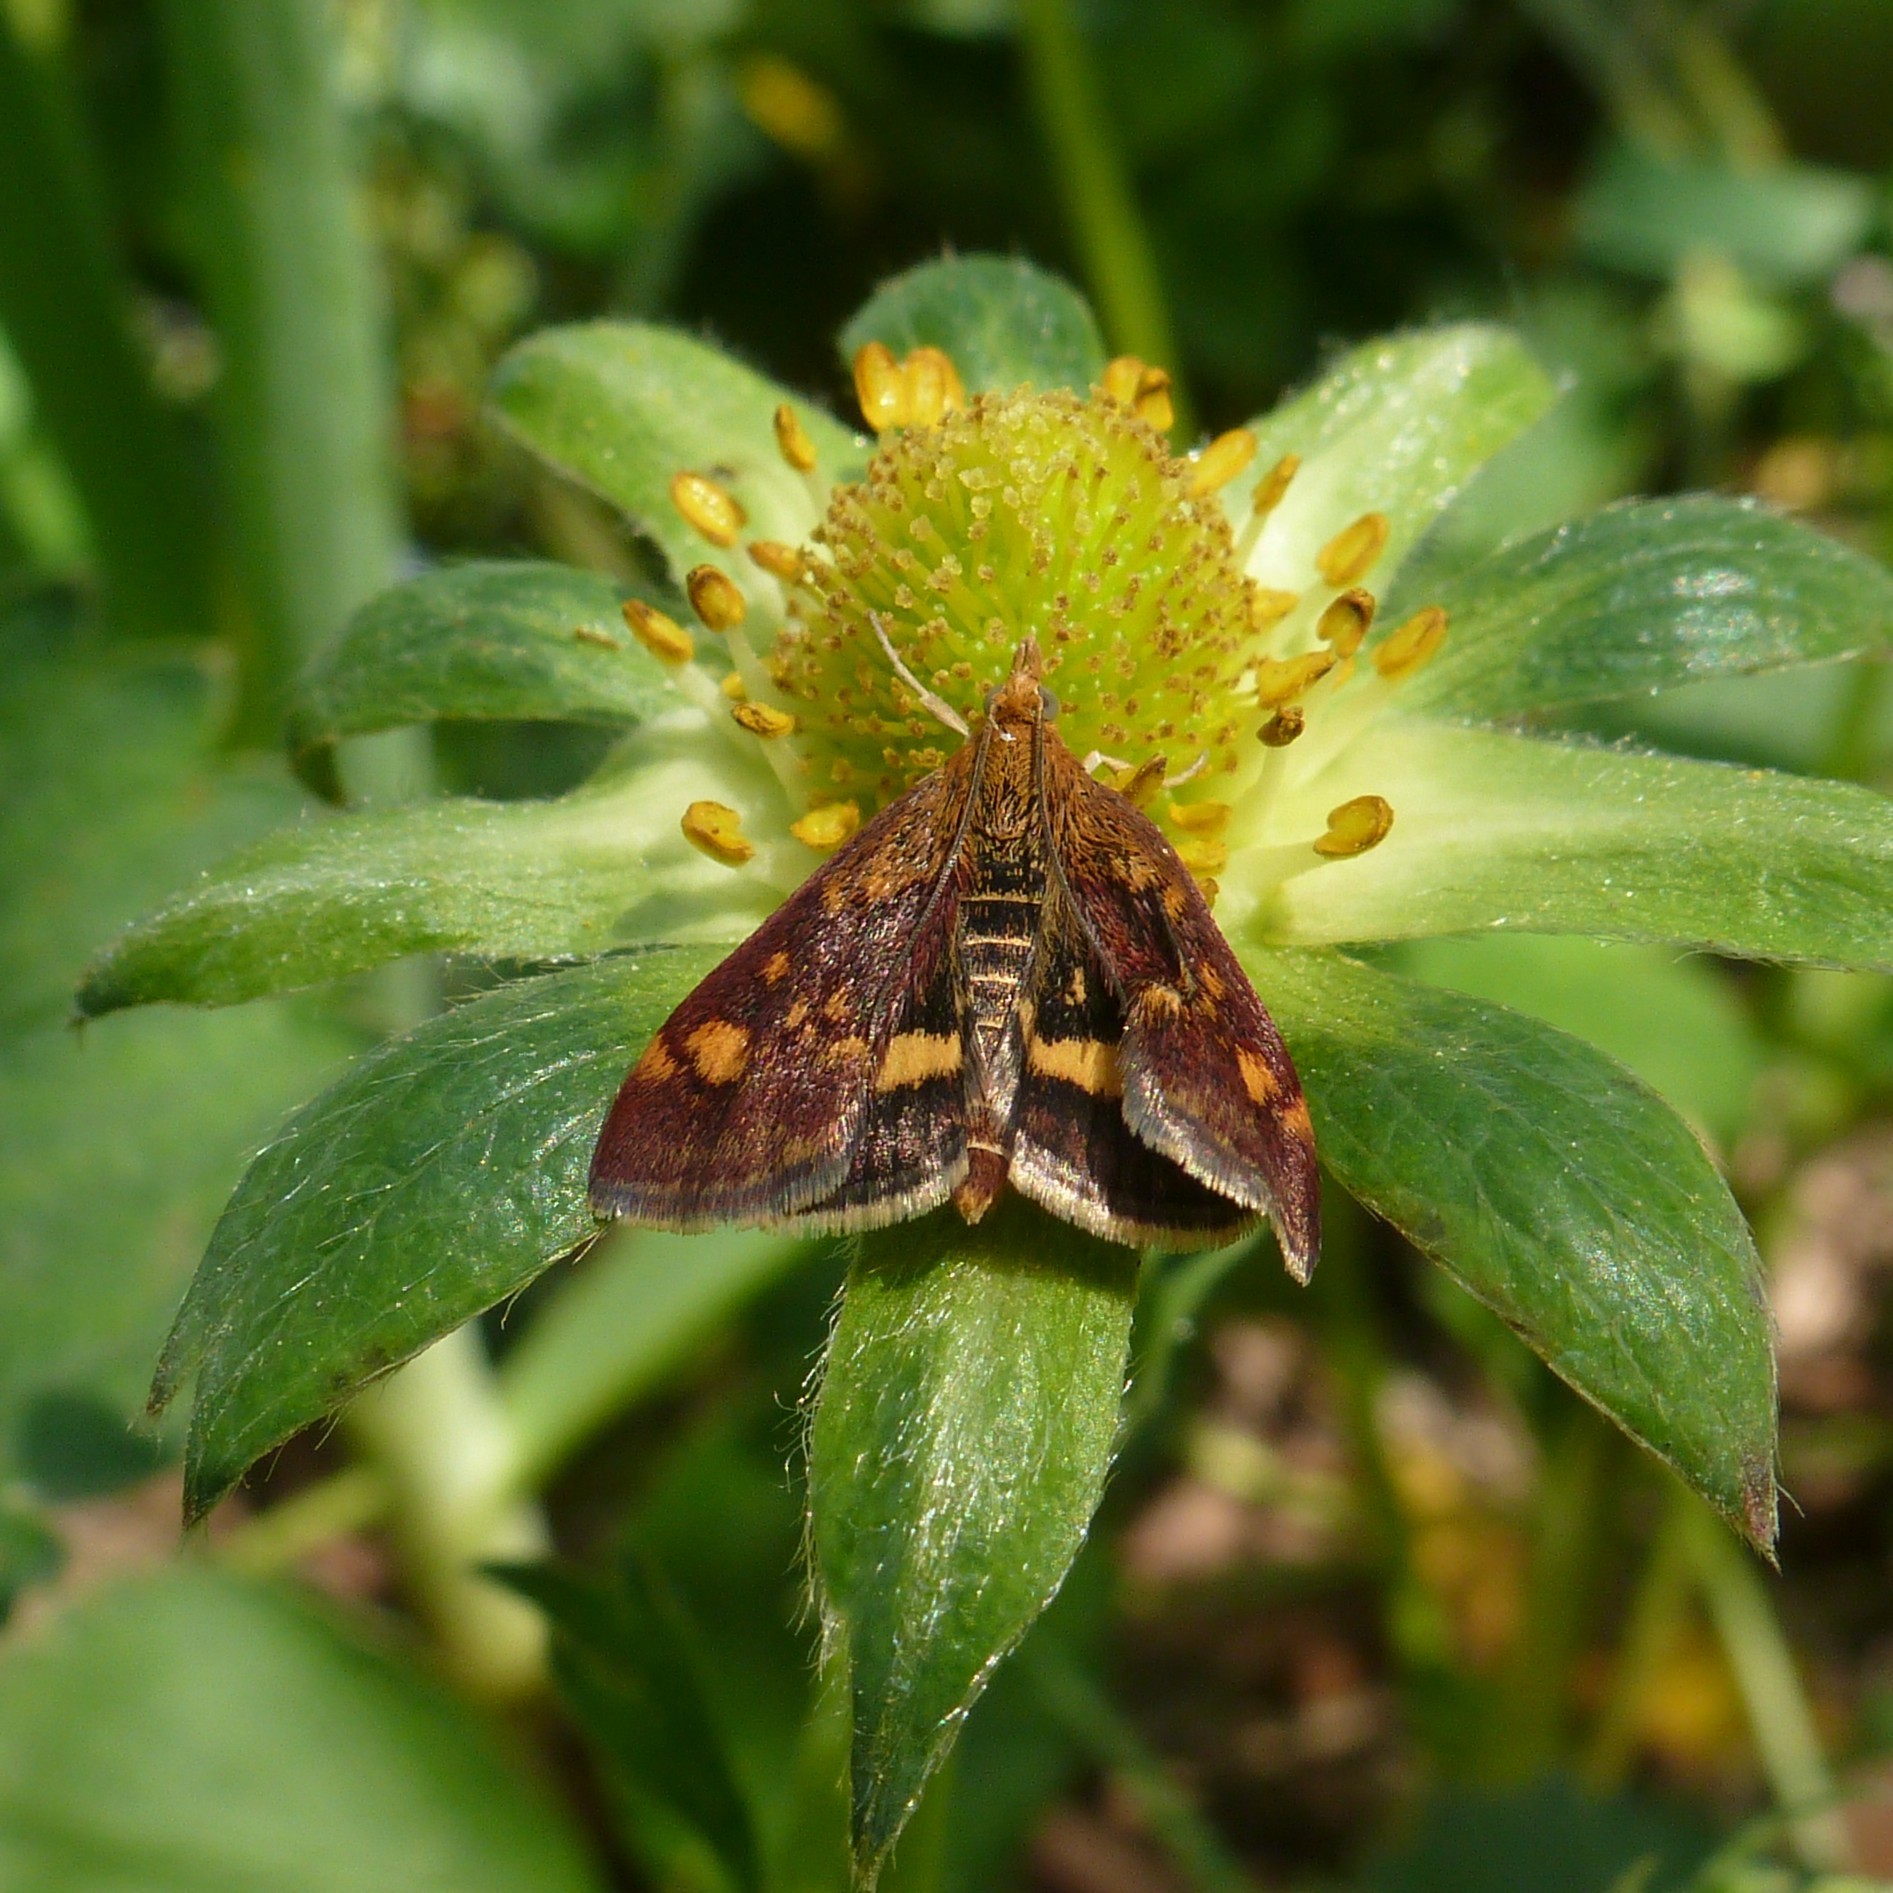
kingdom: Animalia
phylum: Arthropoda
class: Insecta
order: Lepidoptera
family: Crambidae
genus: Pyrausta
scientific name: Pyrausta aurata
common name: Small purple & gold
